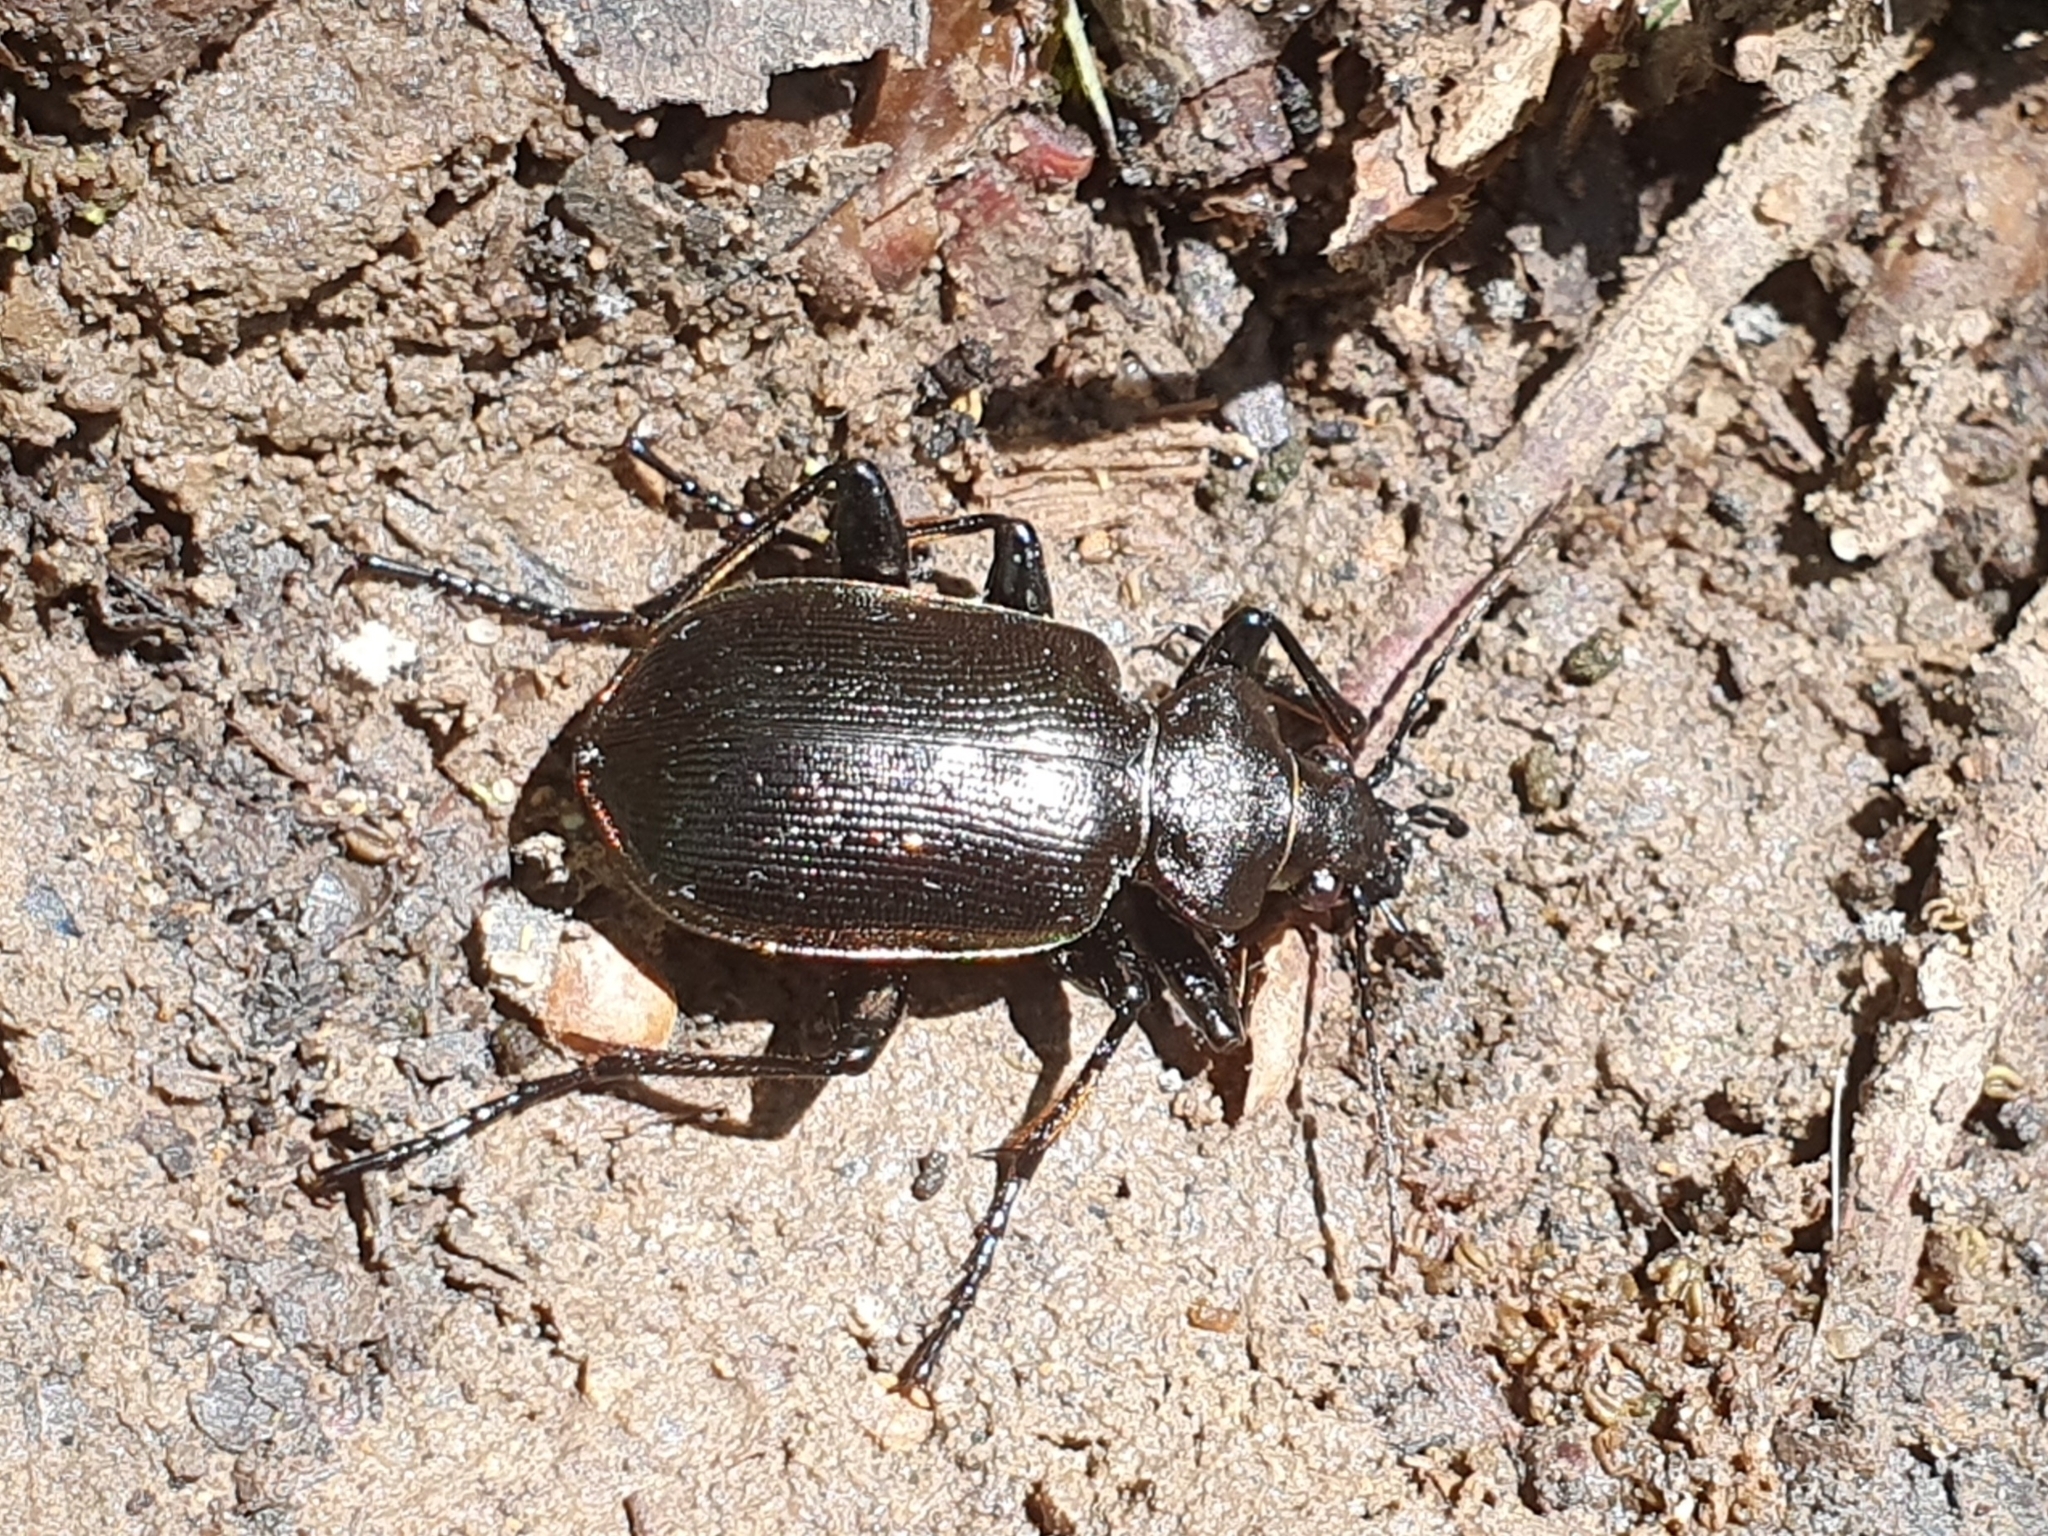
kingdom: Animalia
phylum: Arthropoda
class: Insecta
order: Coleoptera
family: Carabidae
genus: Calosoma
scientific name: Calosoma inquisitor
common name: Caterpillar-hunter
